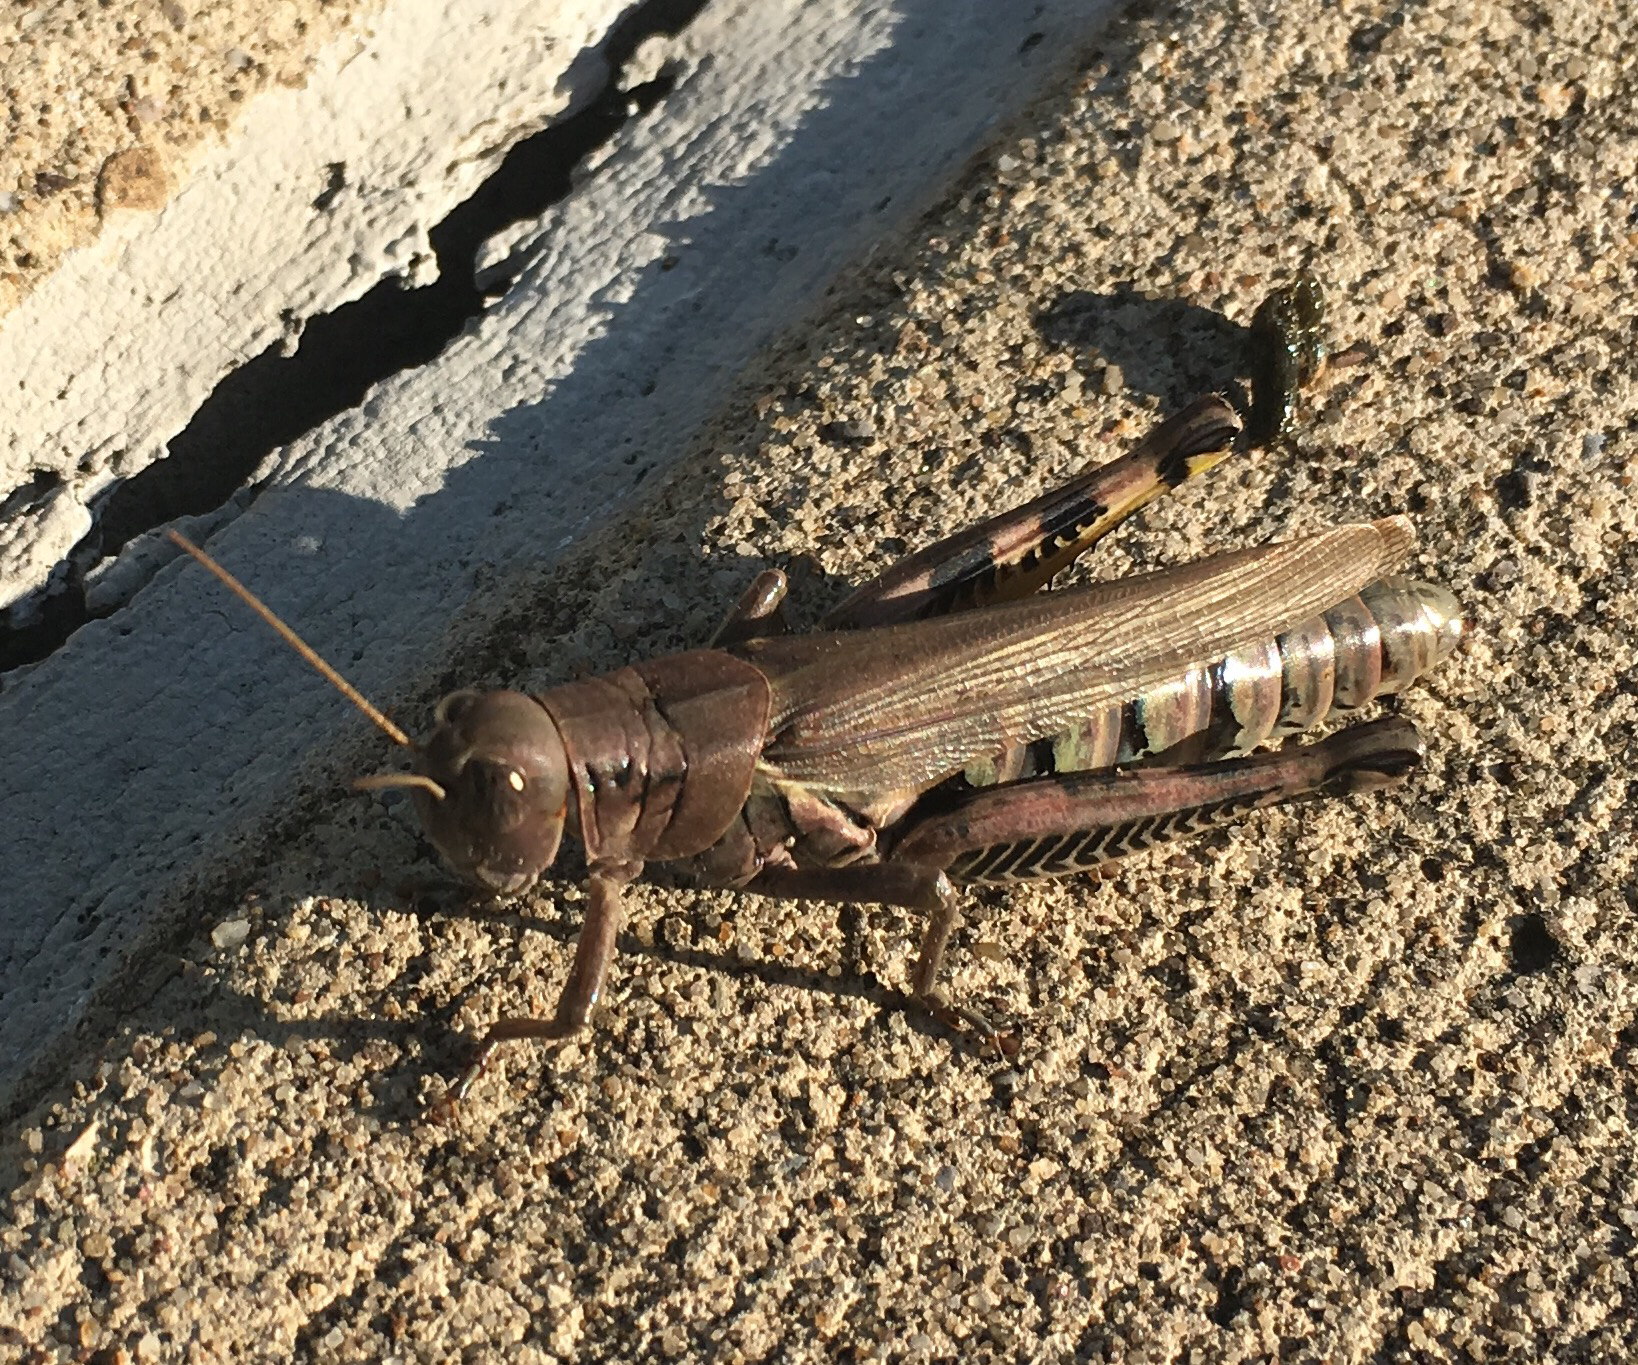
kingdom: Animalia
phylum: Arthropoda
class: Insecta
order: Orthoptera
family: Acrididae
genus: Melanoplus
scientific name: Melanoplus differentialis
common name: Differential grasshopper
